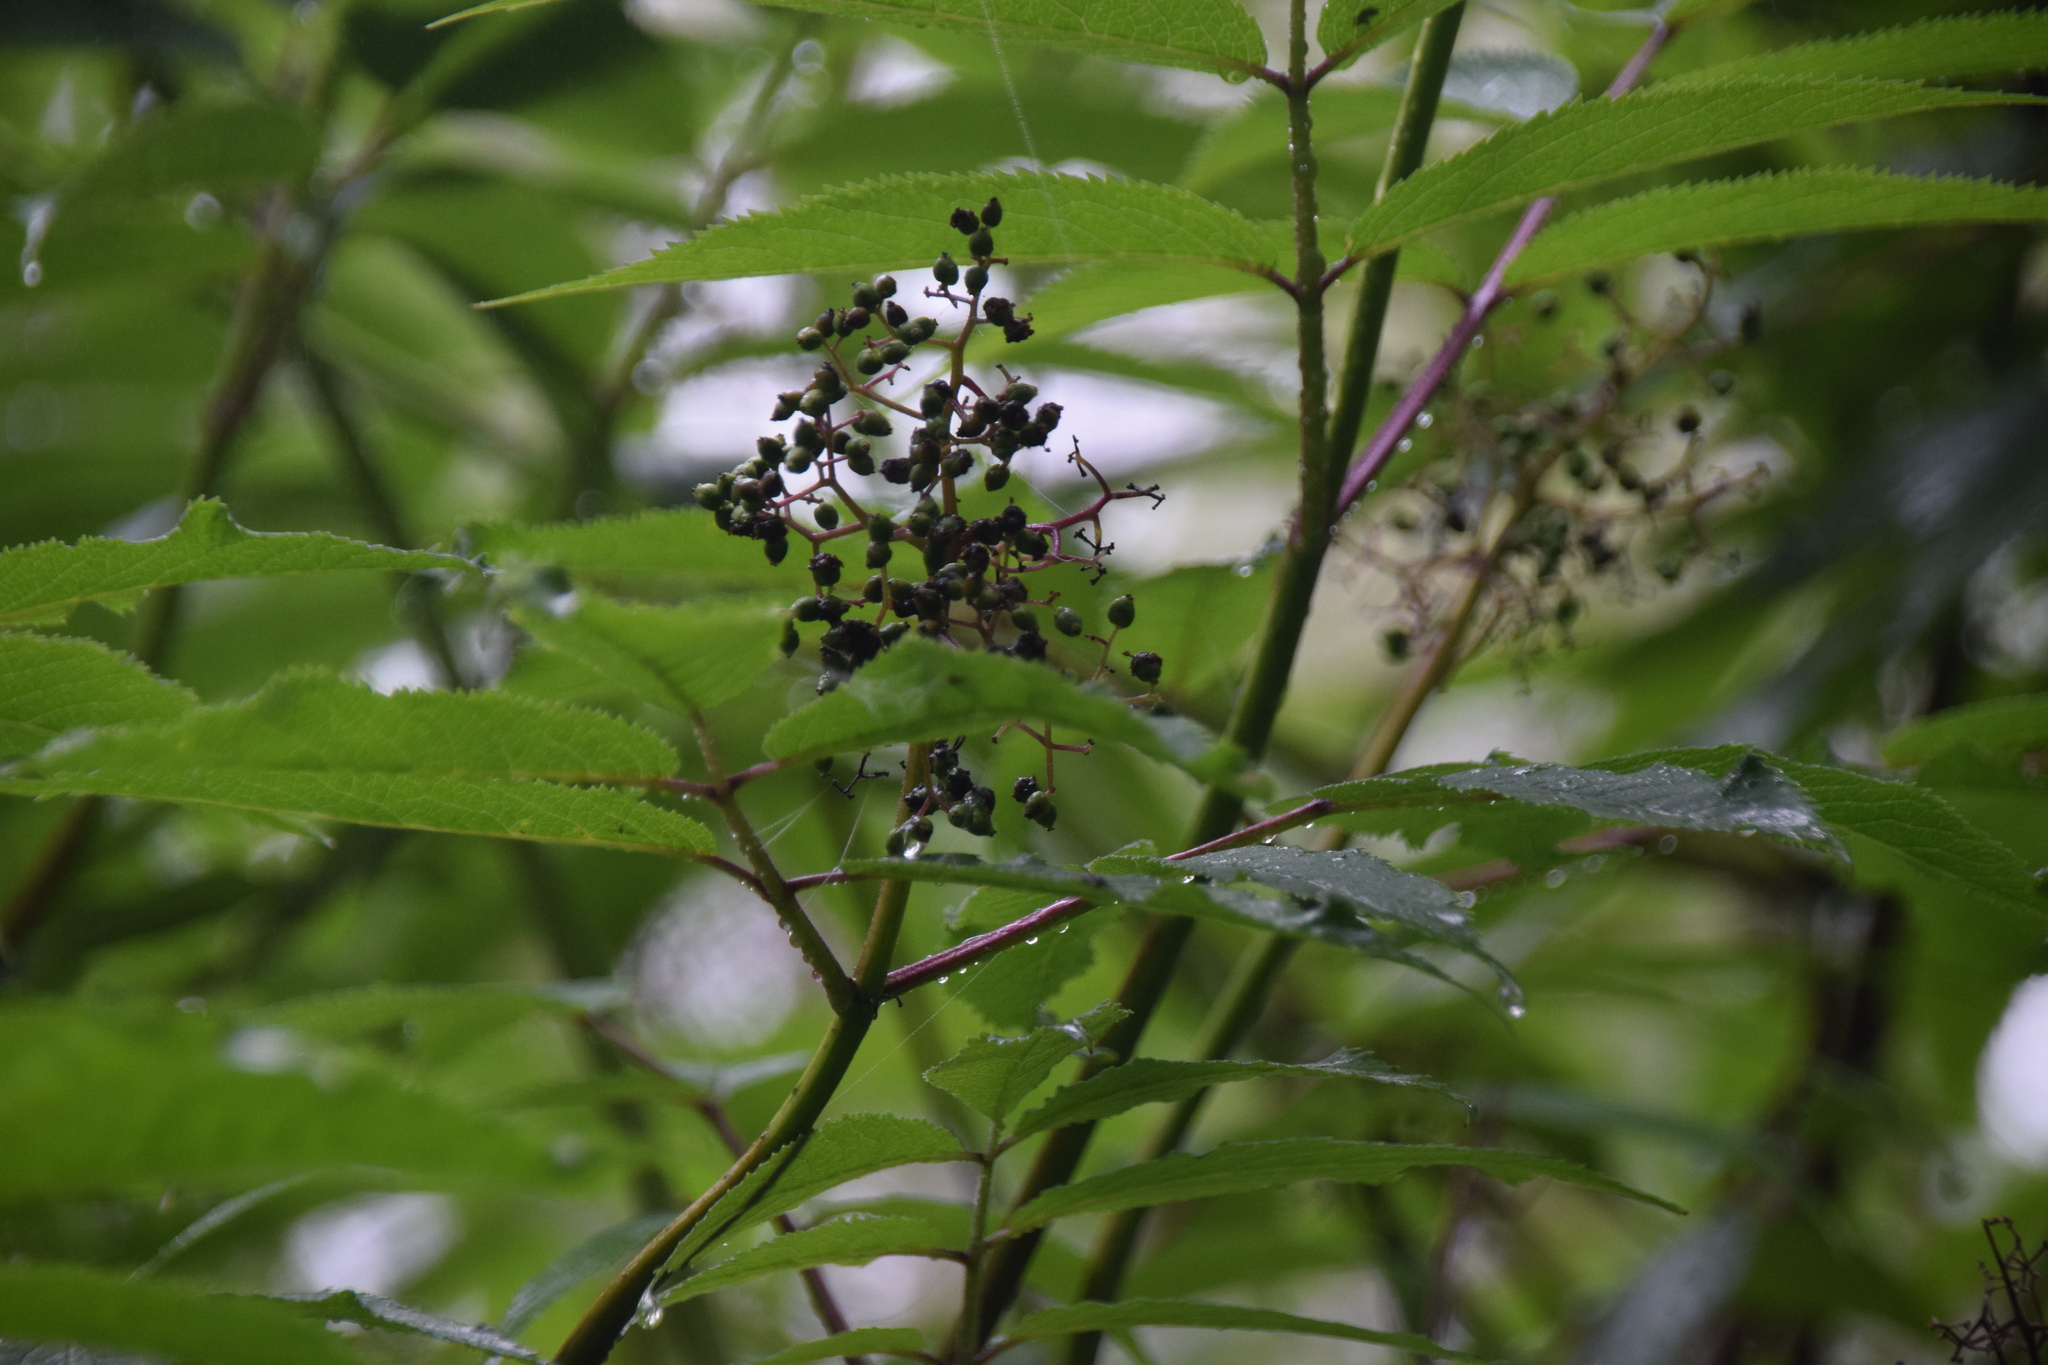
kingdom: Plantae
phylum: Tracheophyta
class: Magnoliopsida
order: Dipsacales
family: Viburnaceae
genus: Sambucus
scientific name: Sambucus racemosa
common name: Red-berried elder
